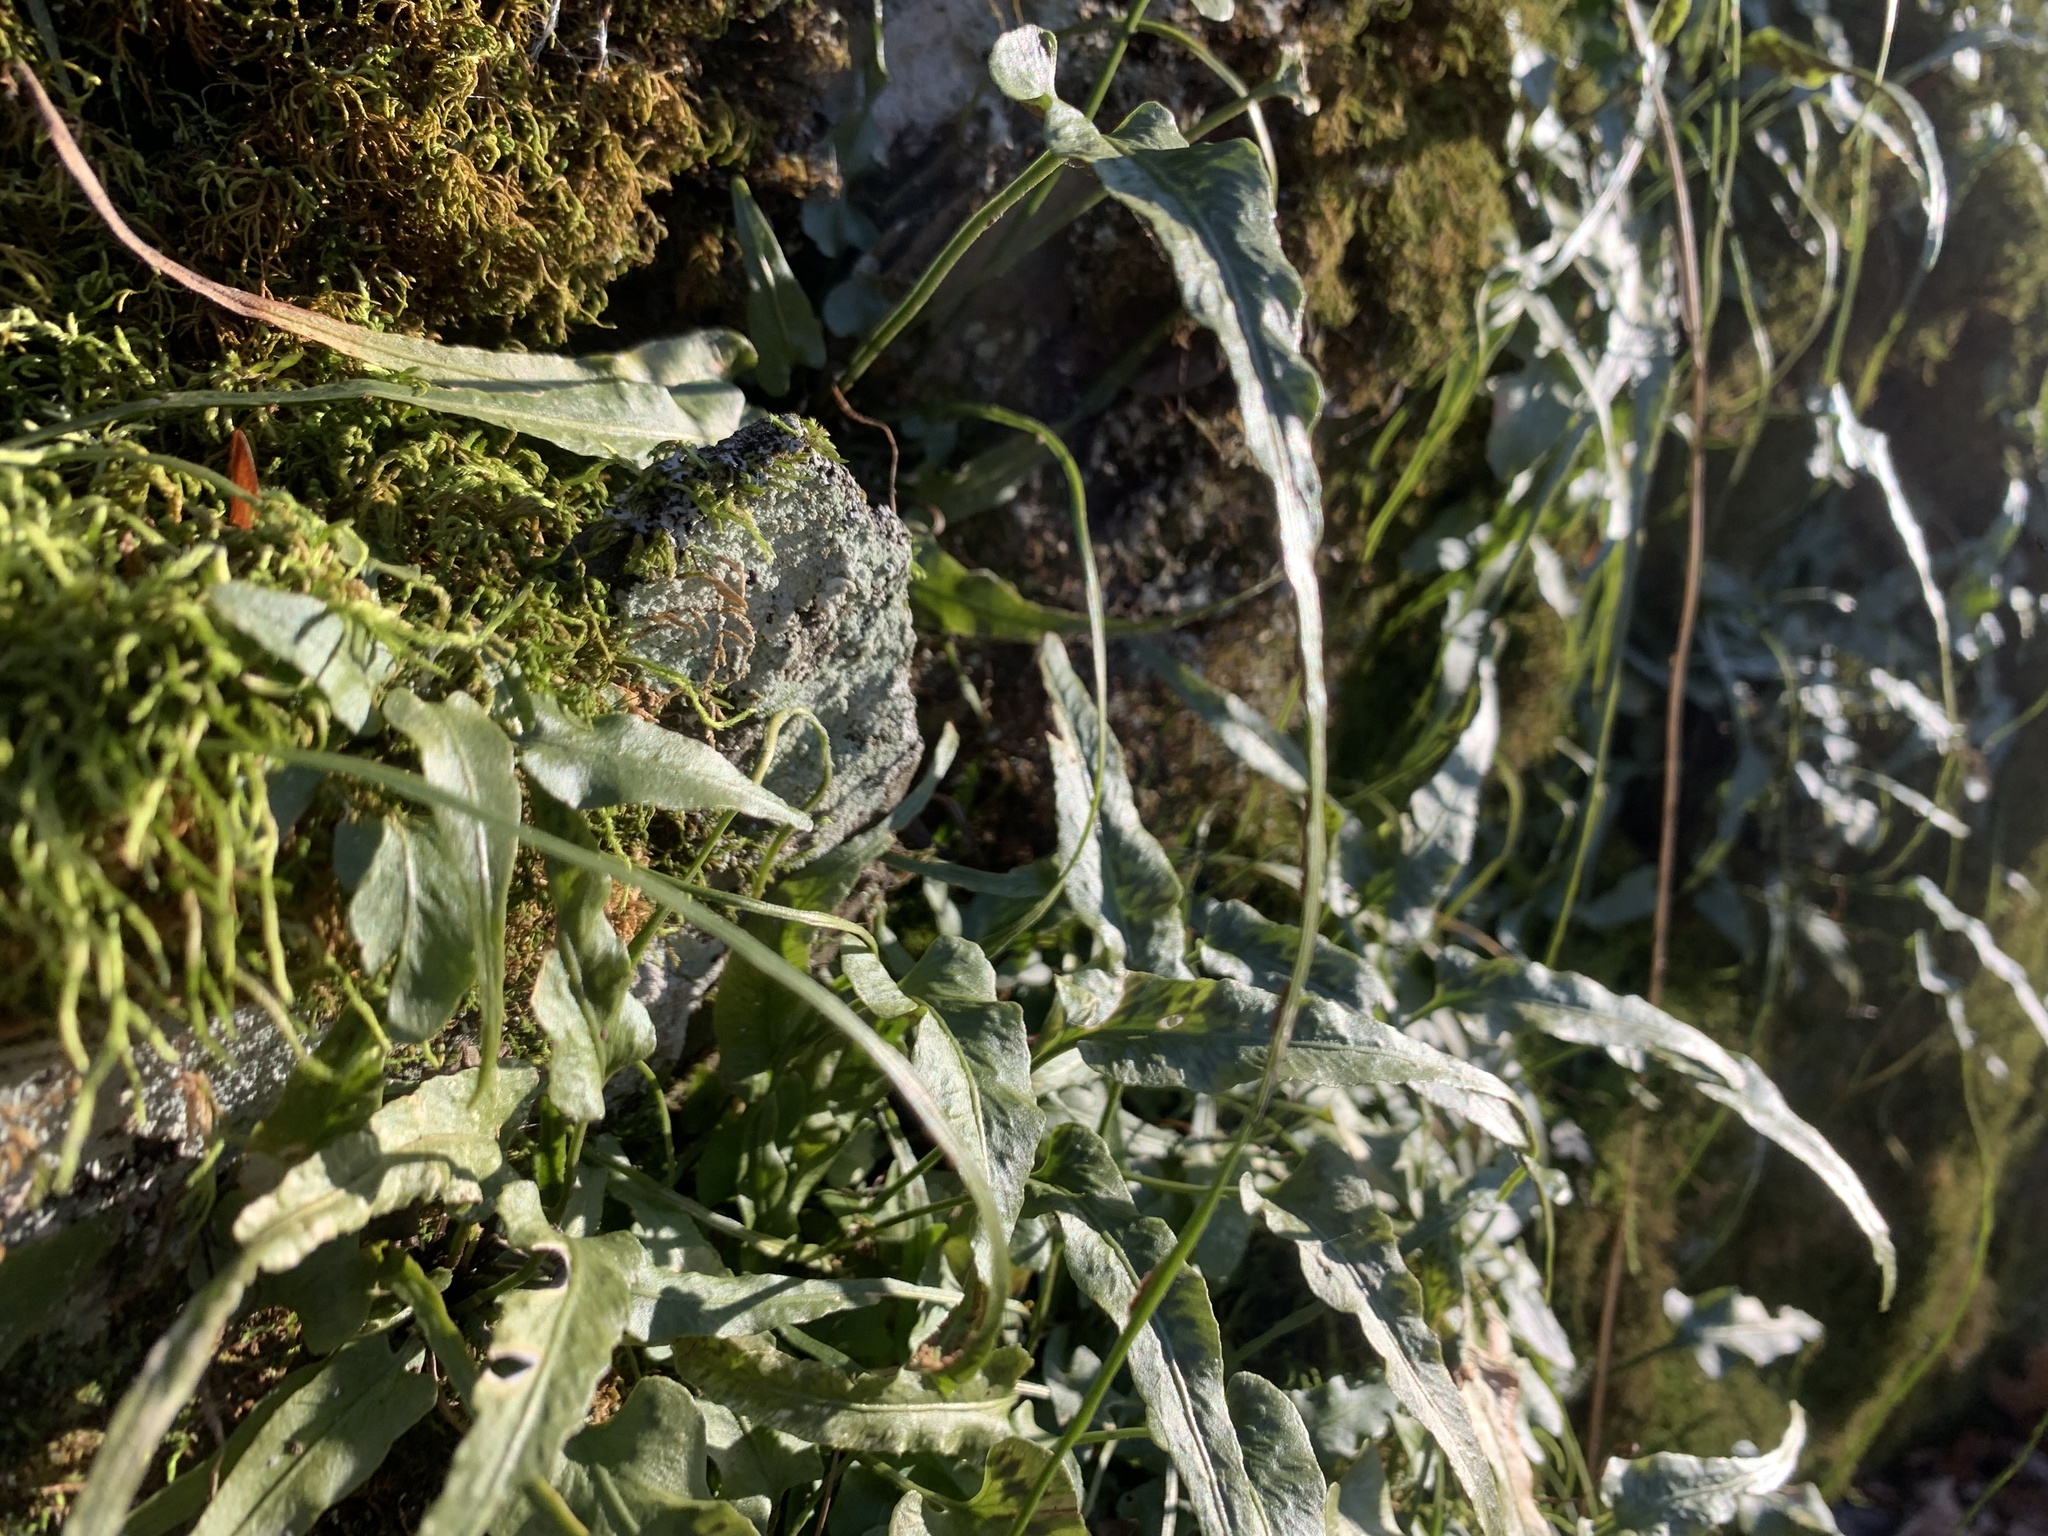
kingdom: Plantae
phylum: Tracheophyta
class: Polypodiopsida
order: Polypodiales
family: Aspleniaceae
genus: Asplenium
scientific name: Asplenium rhizophyllum
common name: Walking fern
